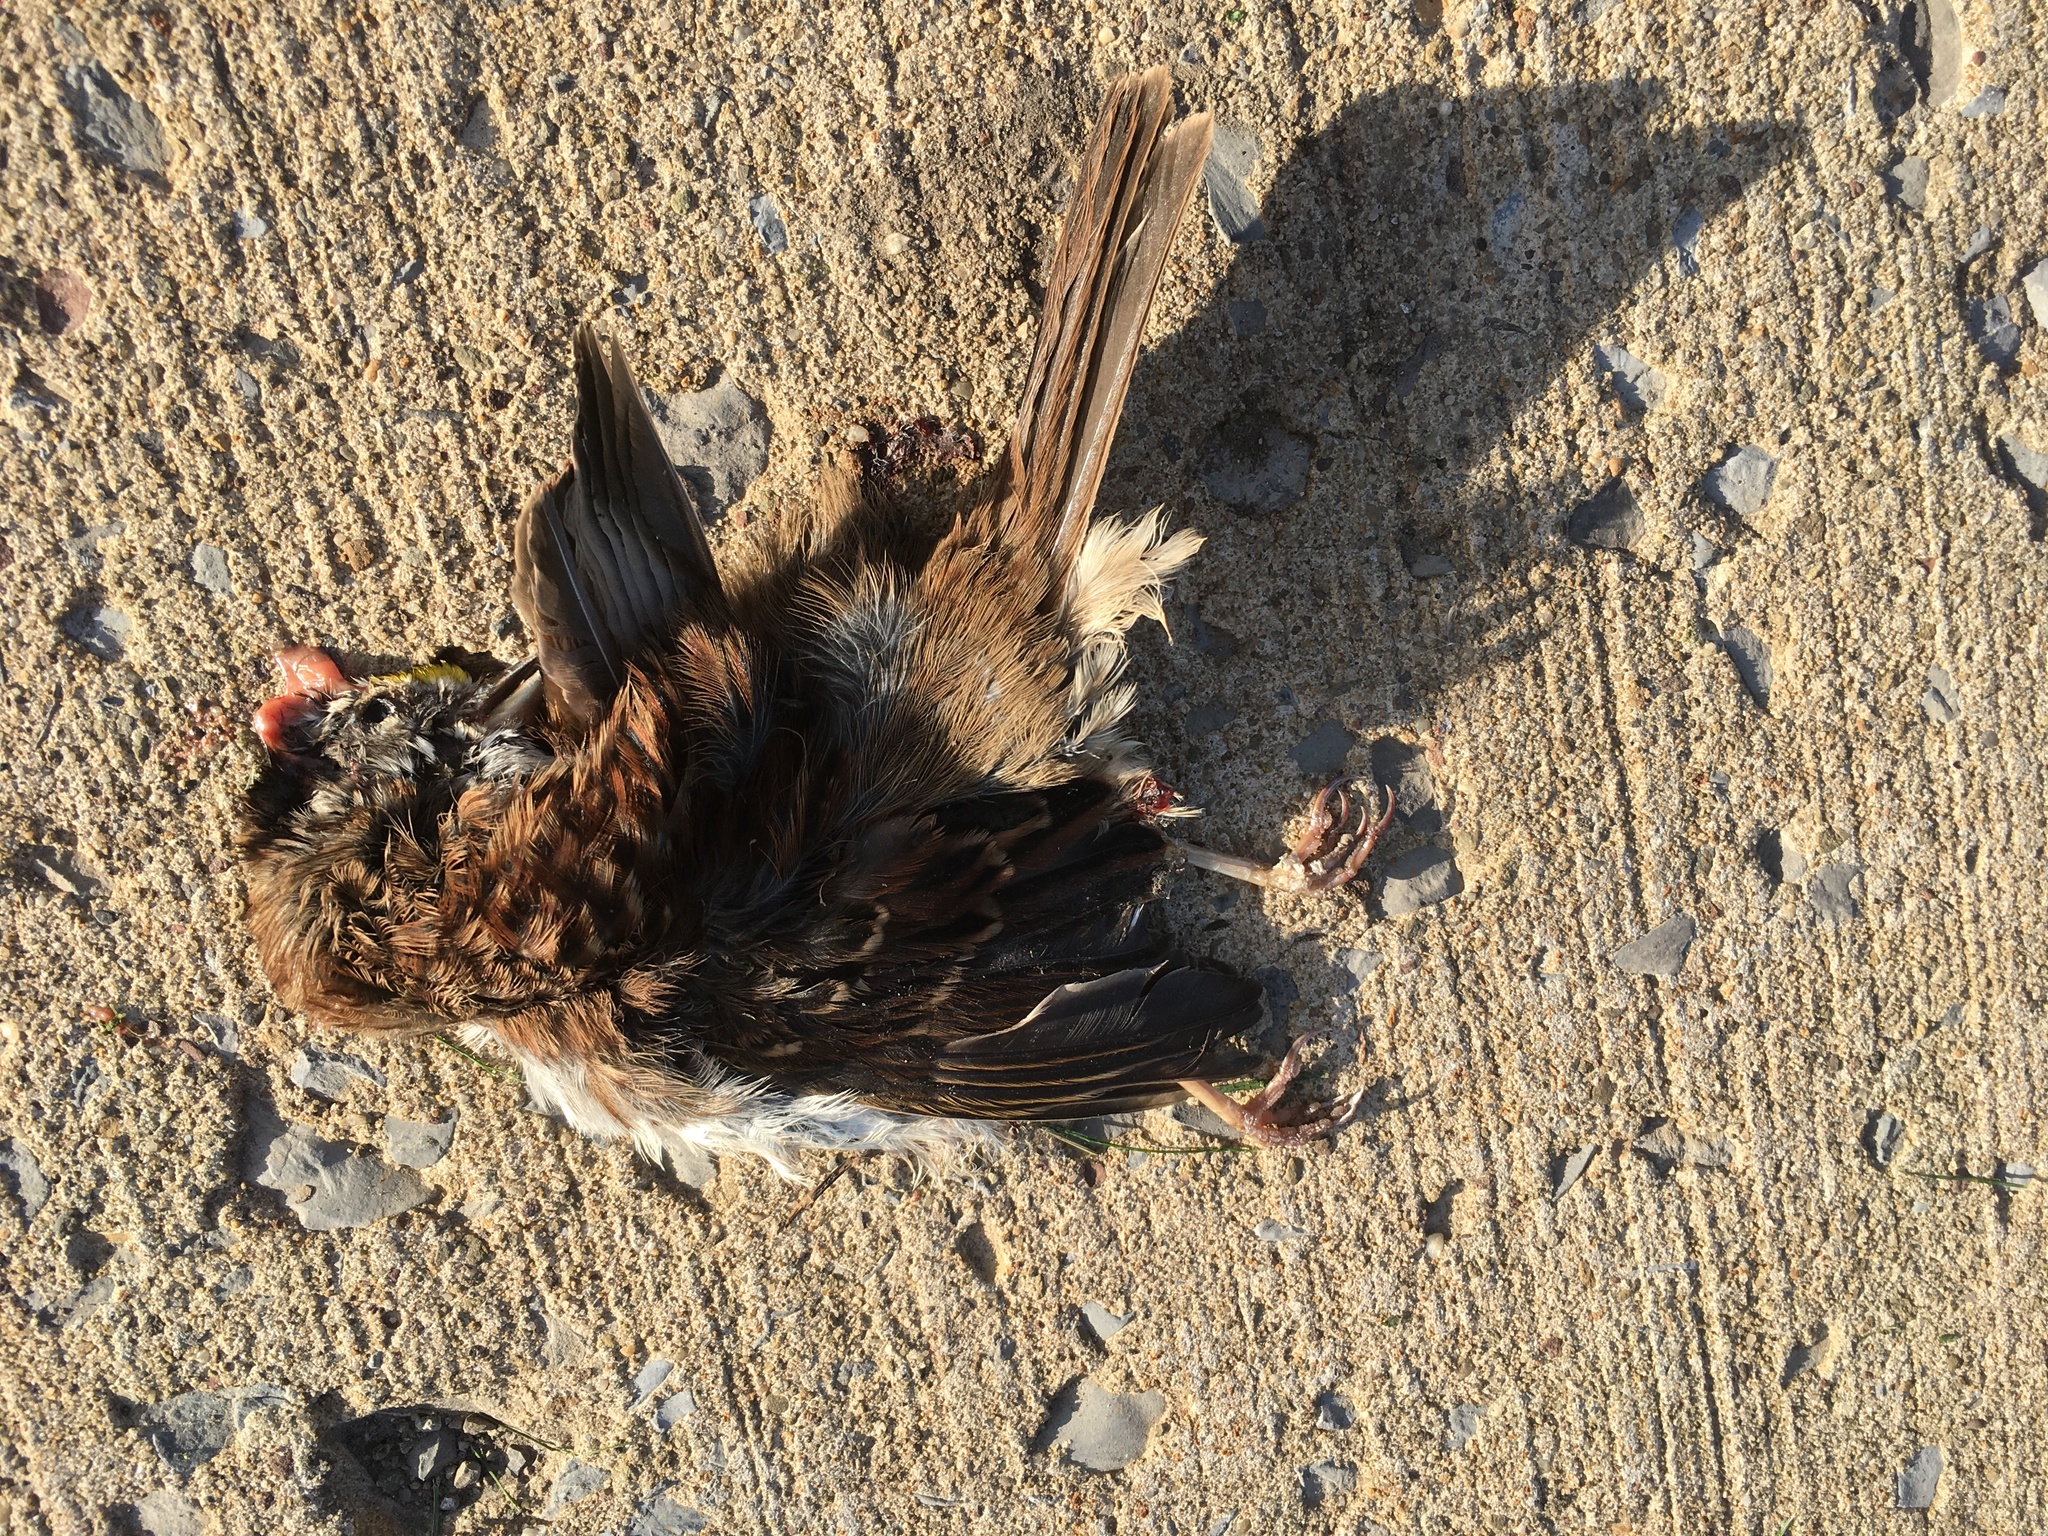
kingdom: Animalia
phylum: Chordata
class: Aves
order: Passeriformes
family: Passerellidae
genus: Zonotrichia
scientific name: Zonotrichia albicollis
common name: White-throated sparrow
